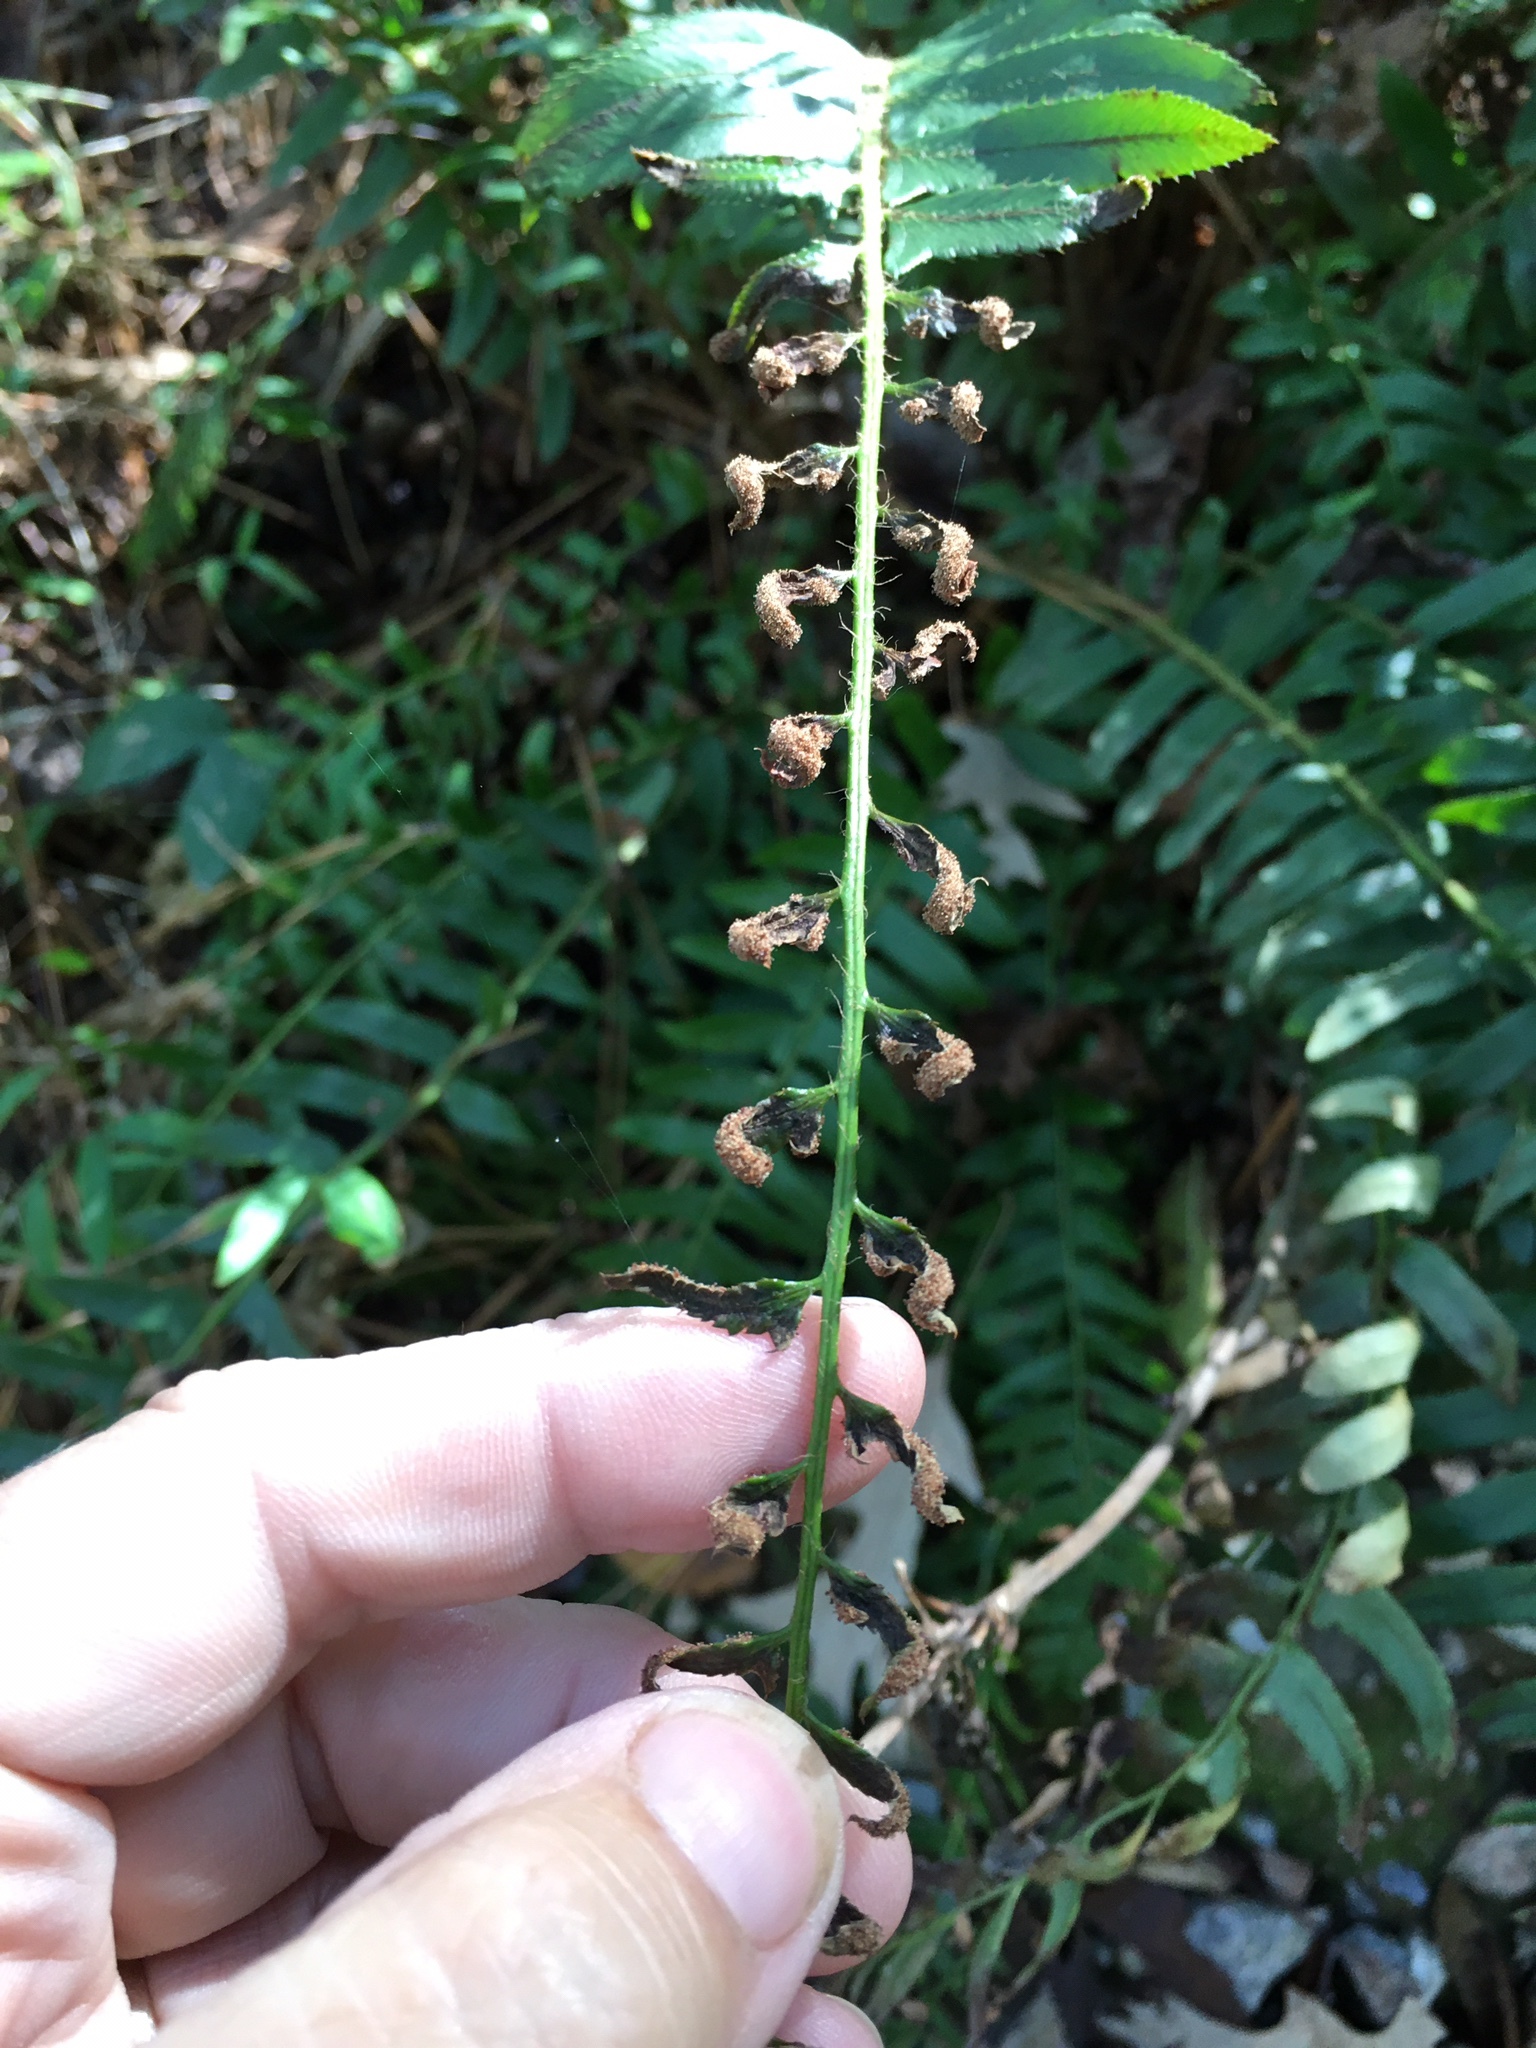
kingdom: Plantae
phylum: Tracheophyta
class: Polypodiopsida
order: Polypodiales
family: Dryopteridaceae
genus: Polystichum
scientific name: Polystichum acrostichoides
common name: Christmas fern
